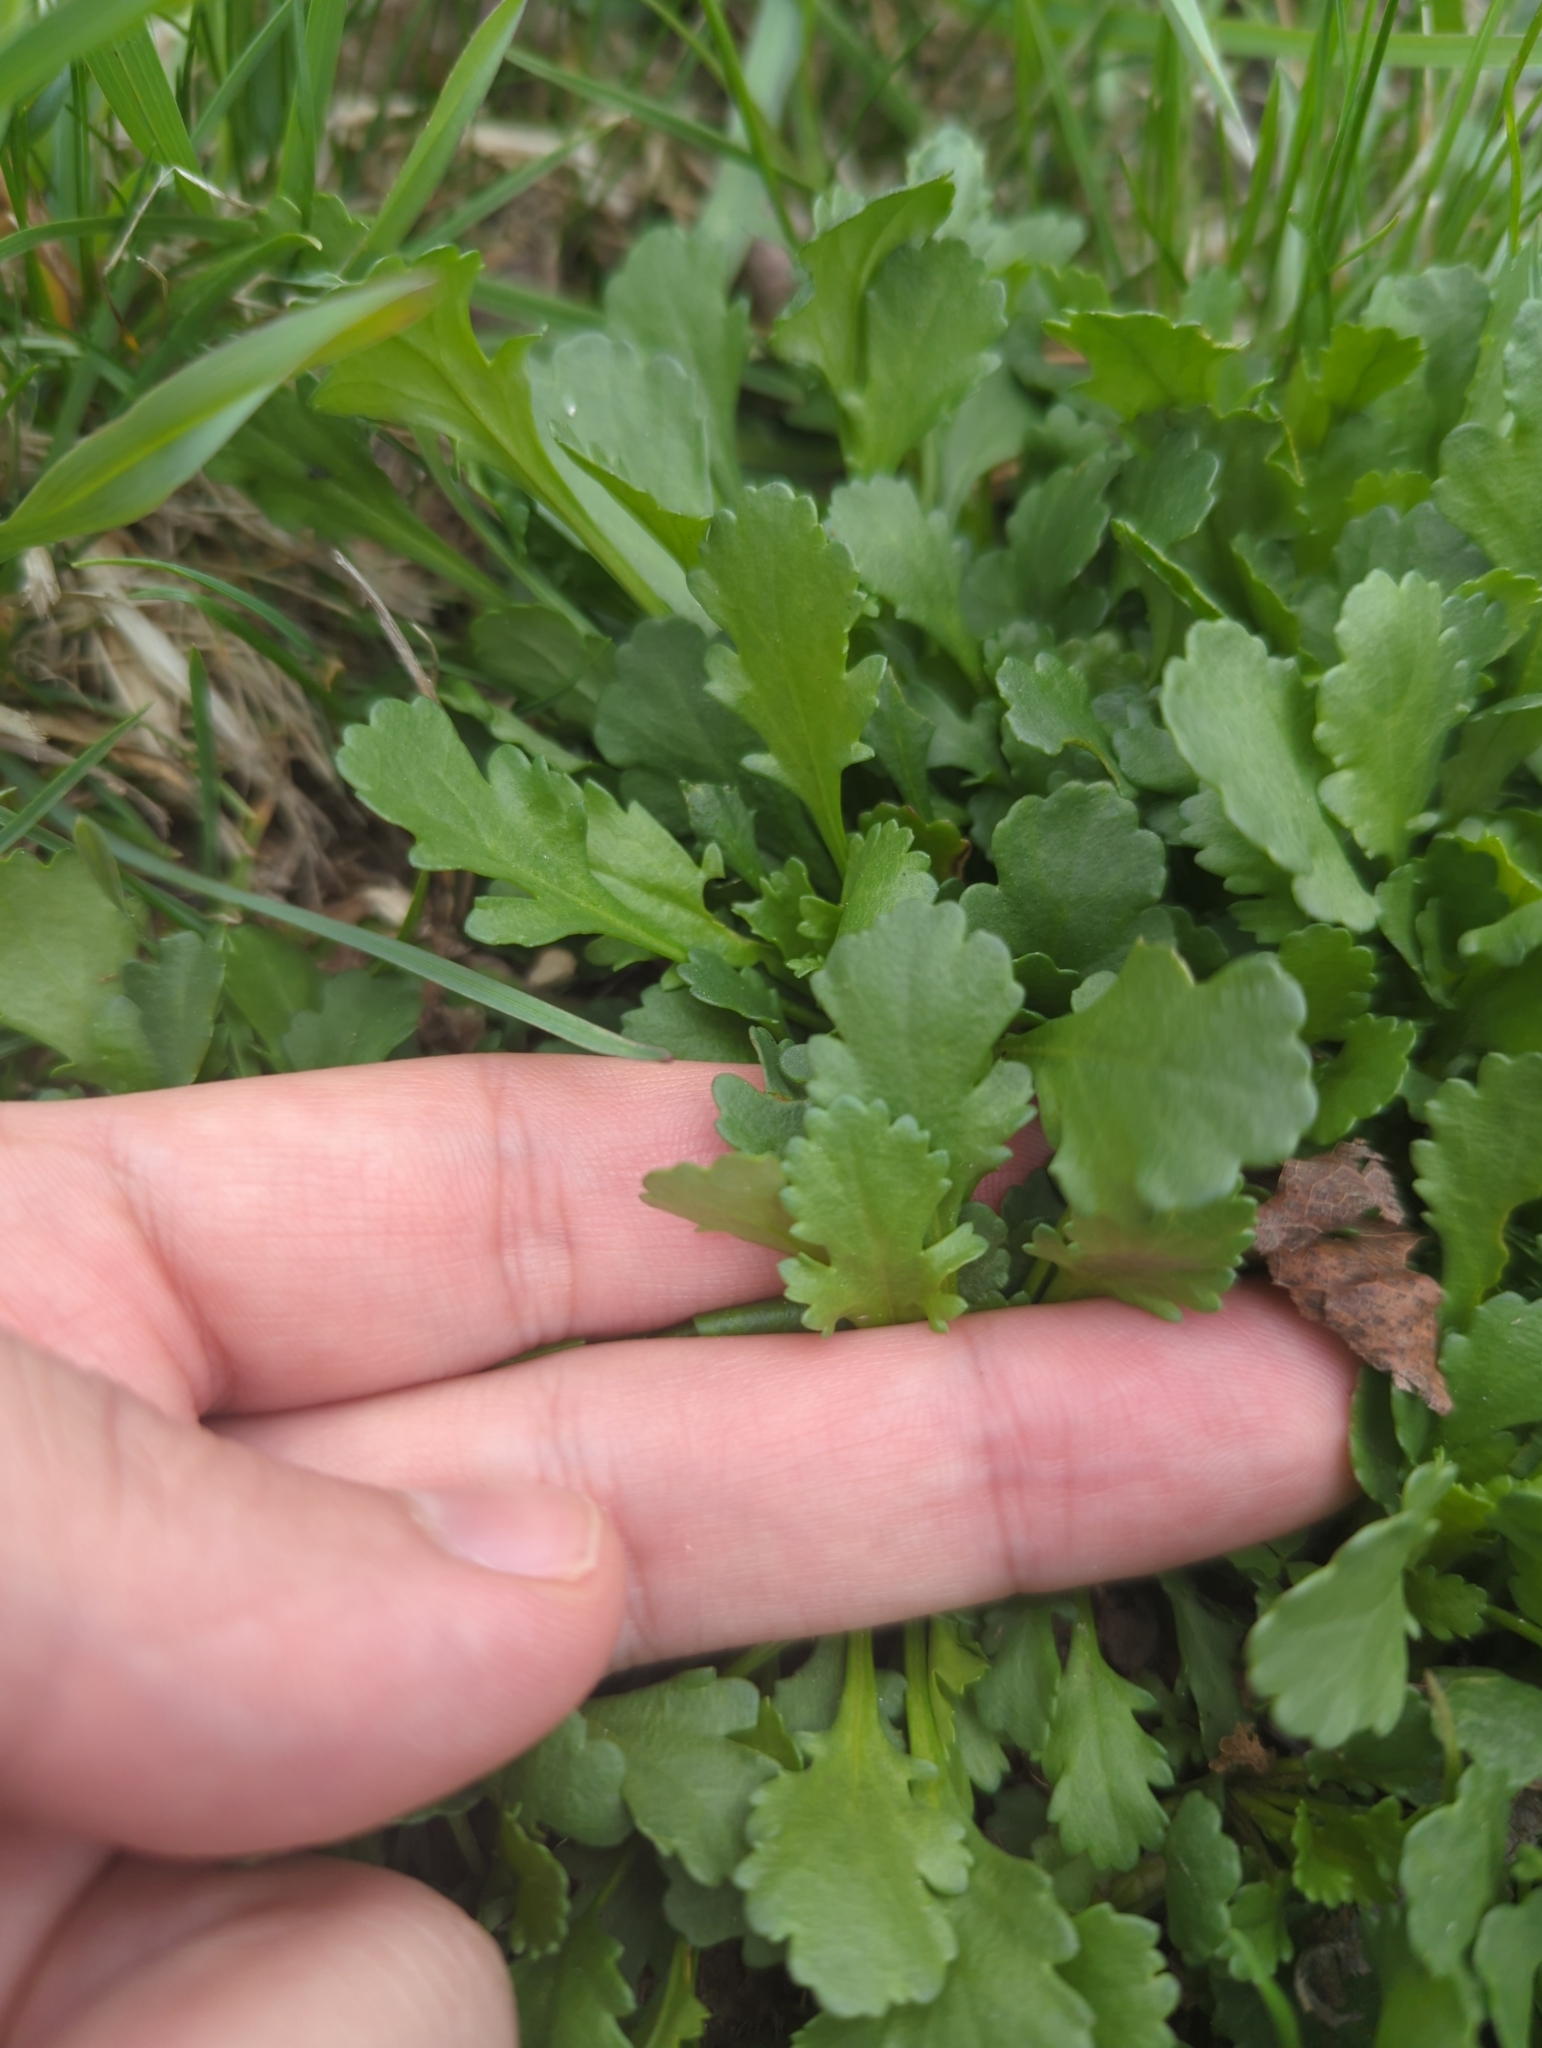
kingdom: Plantae
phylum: Tracheophyta
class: Magnoliopsida
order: Asterales
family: Asteraceae
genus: Leucanthemum
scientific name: Leucanthemum vulgare
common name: Oxeye daisy
